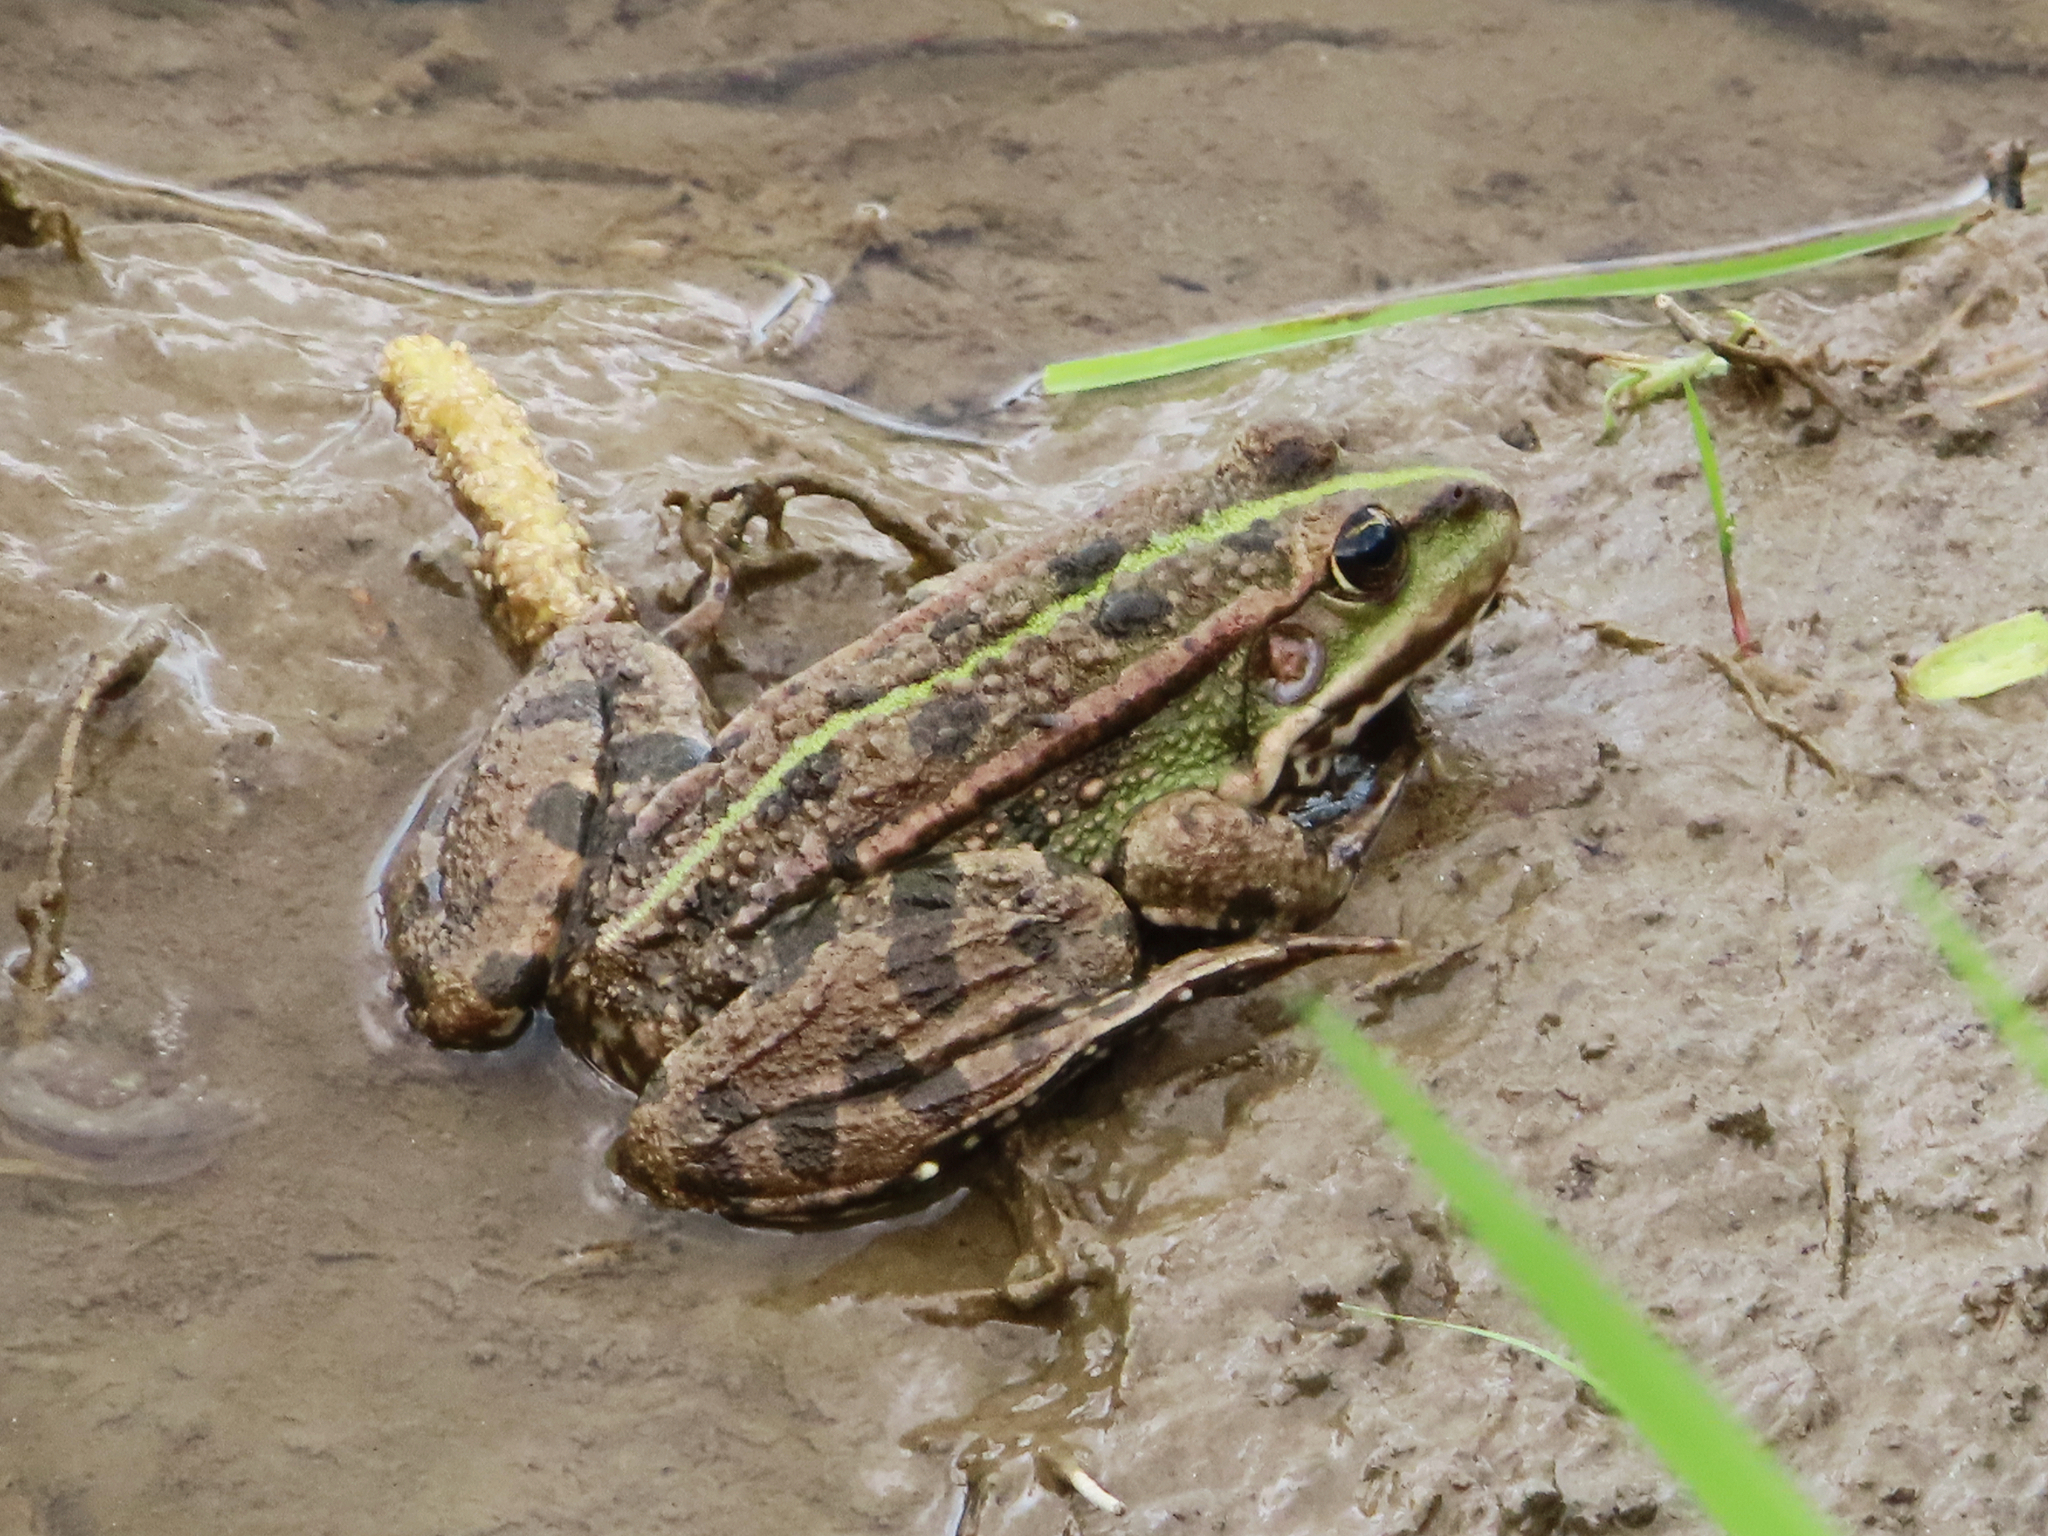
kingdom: Animalia
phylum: Chordata
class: Amphibia
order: Anura
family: Ranidae
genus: Pelophylax
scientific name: Pelophylax ridibundus
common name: Marsh frog
